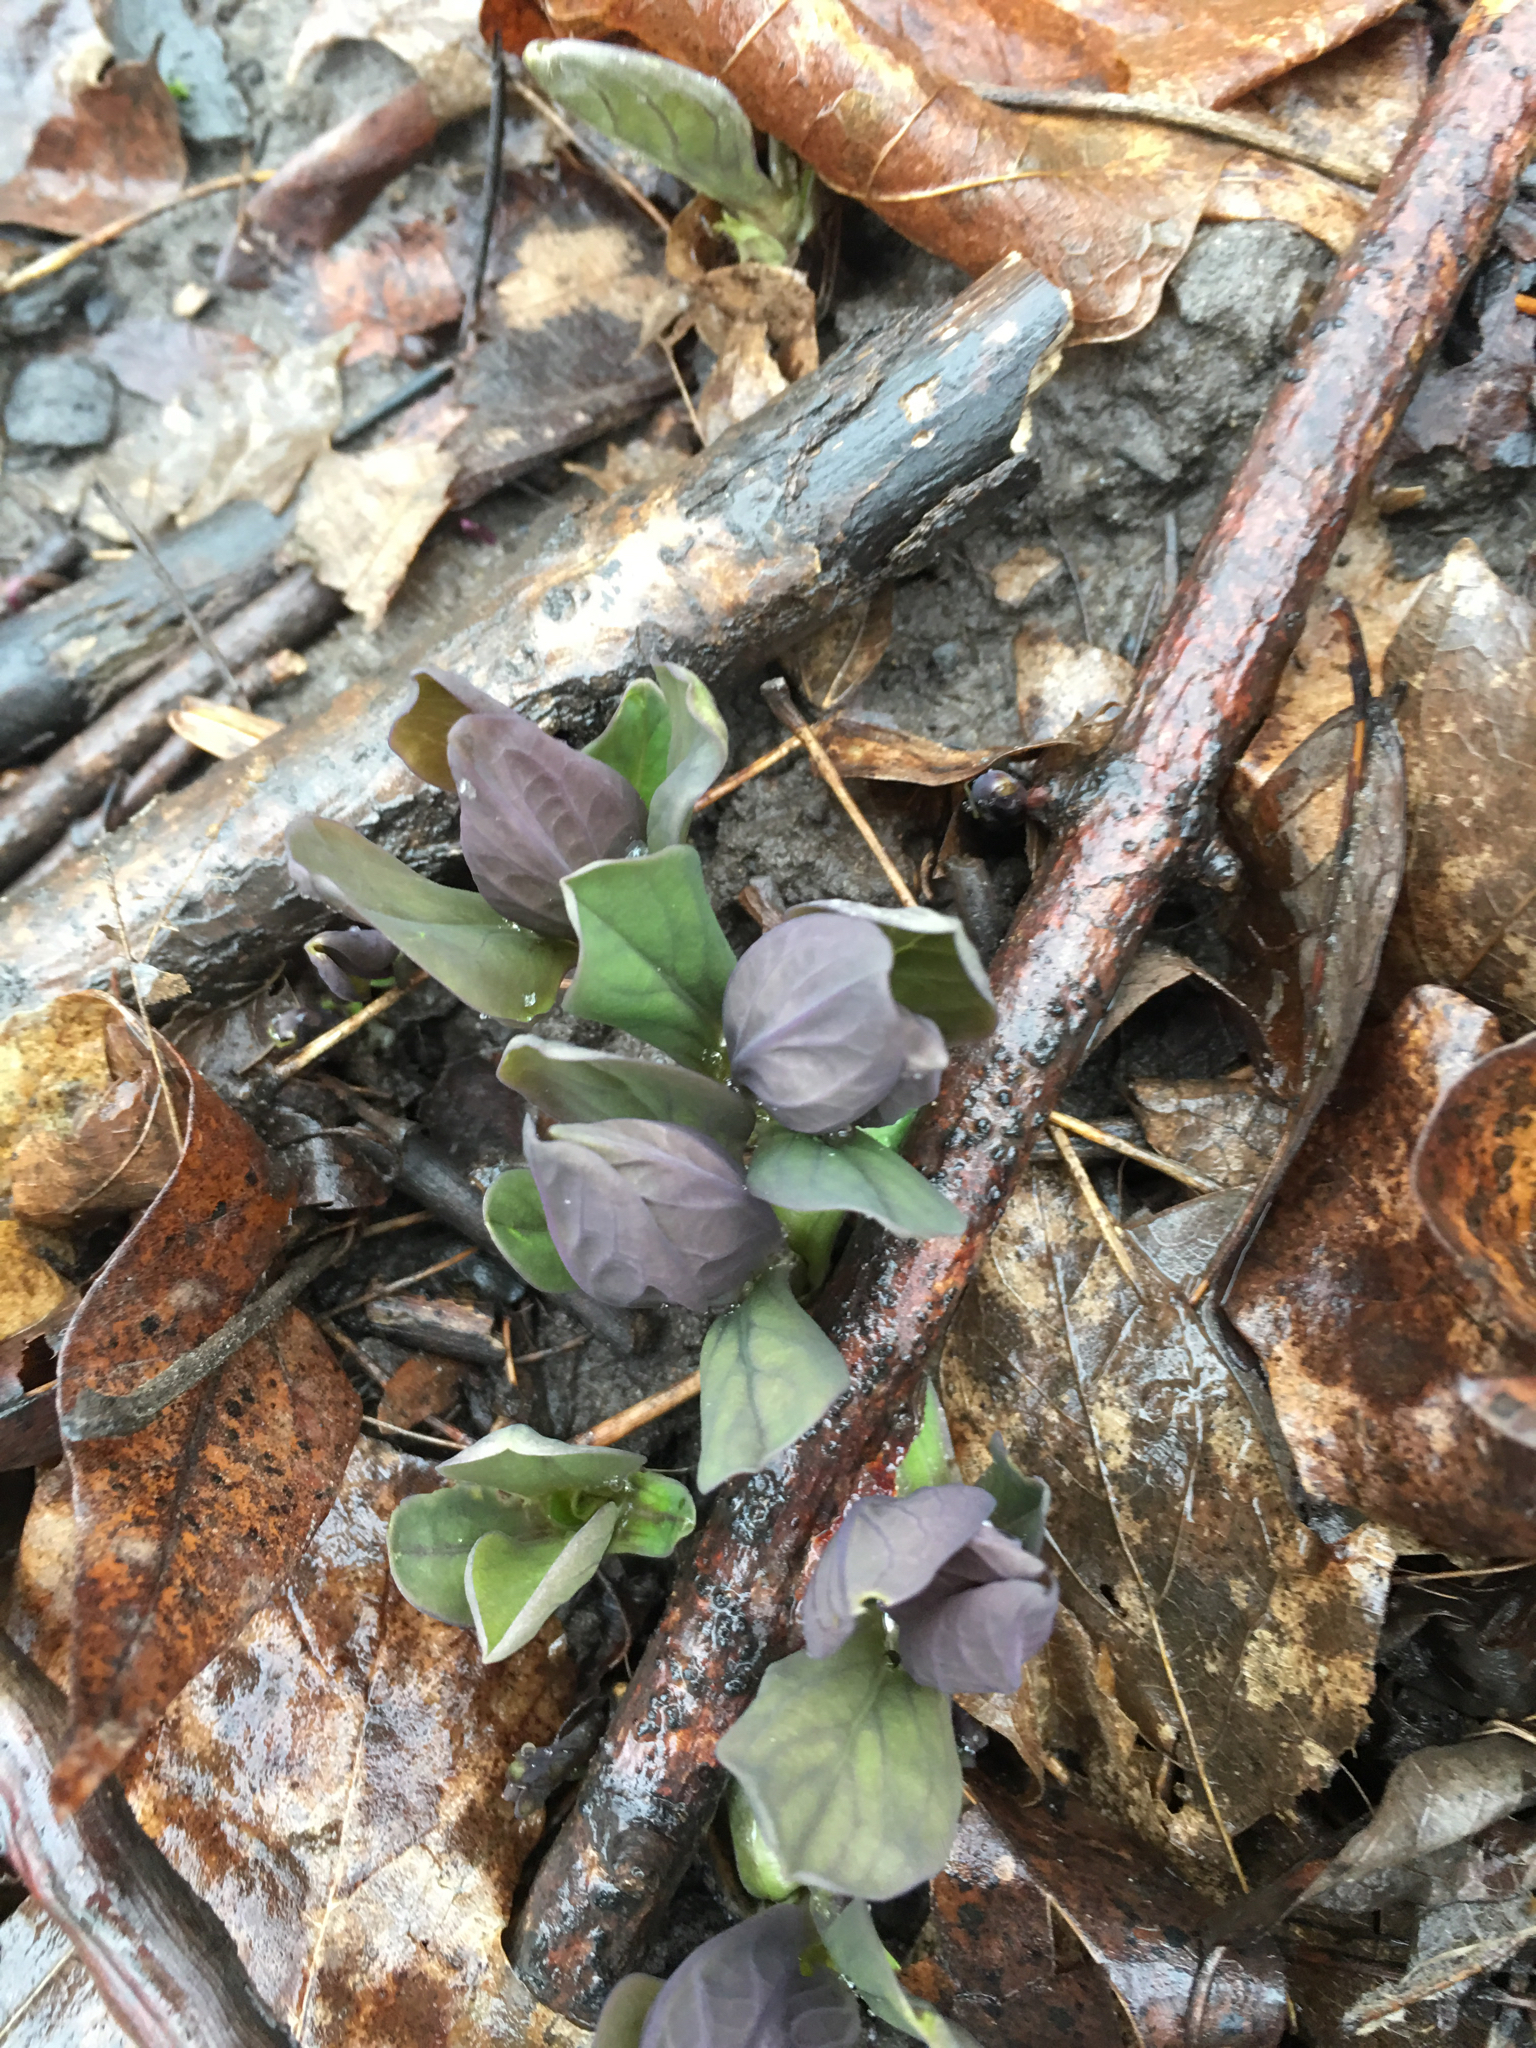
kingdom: Plantae
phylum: Tracheophyta
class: Magnoliopsida
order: Boraginales
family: Boraginaceae
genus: Mertensia
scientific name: Mertensia virginica
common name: Virginia bluebells
